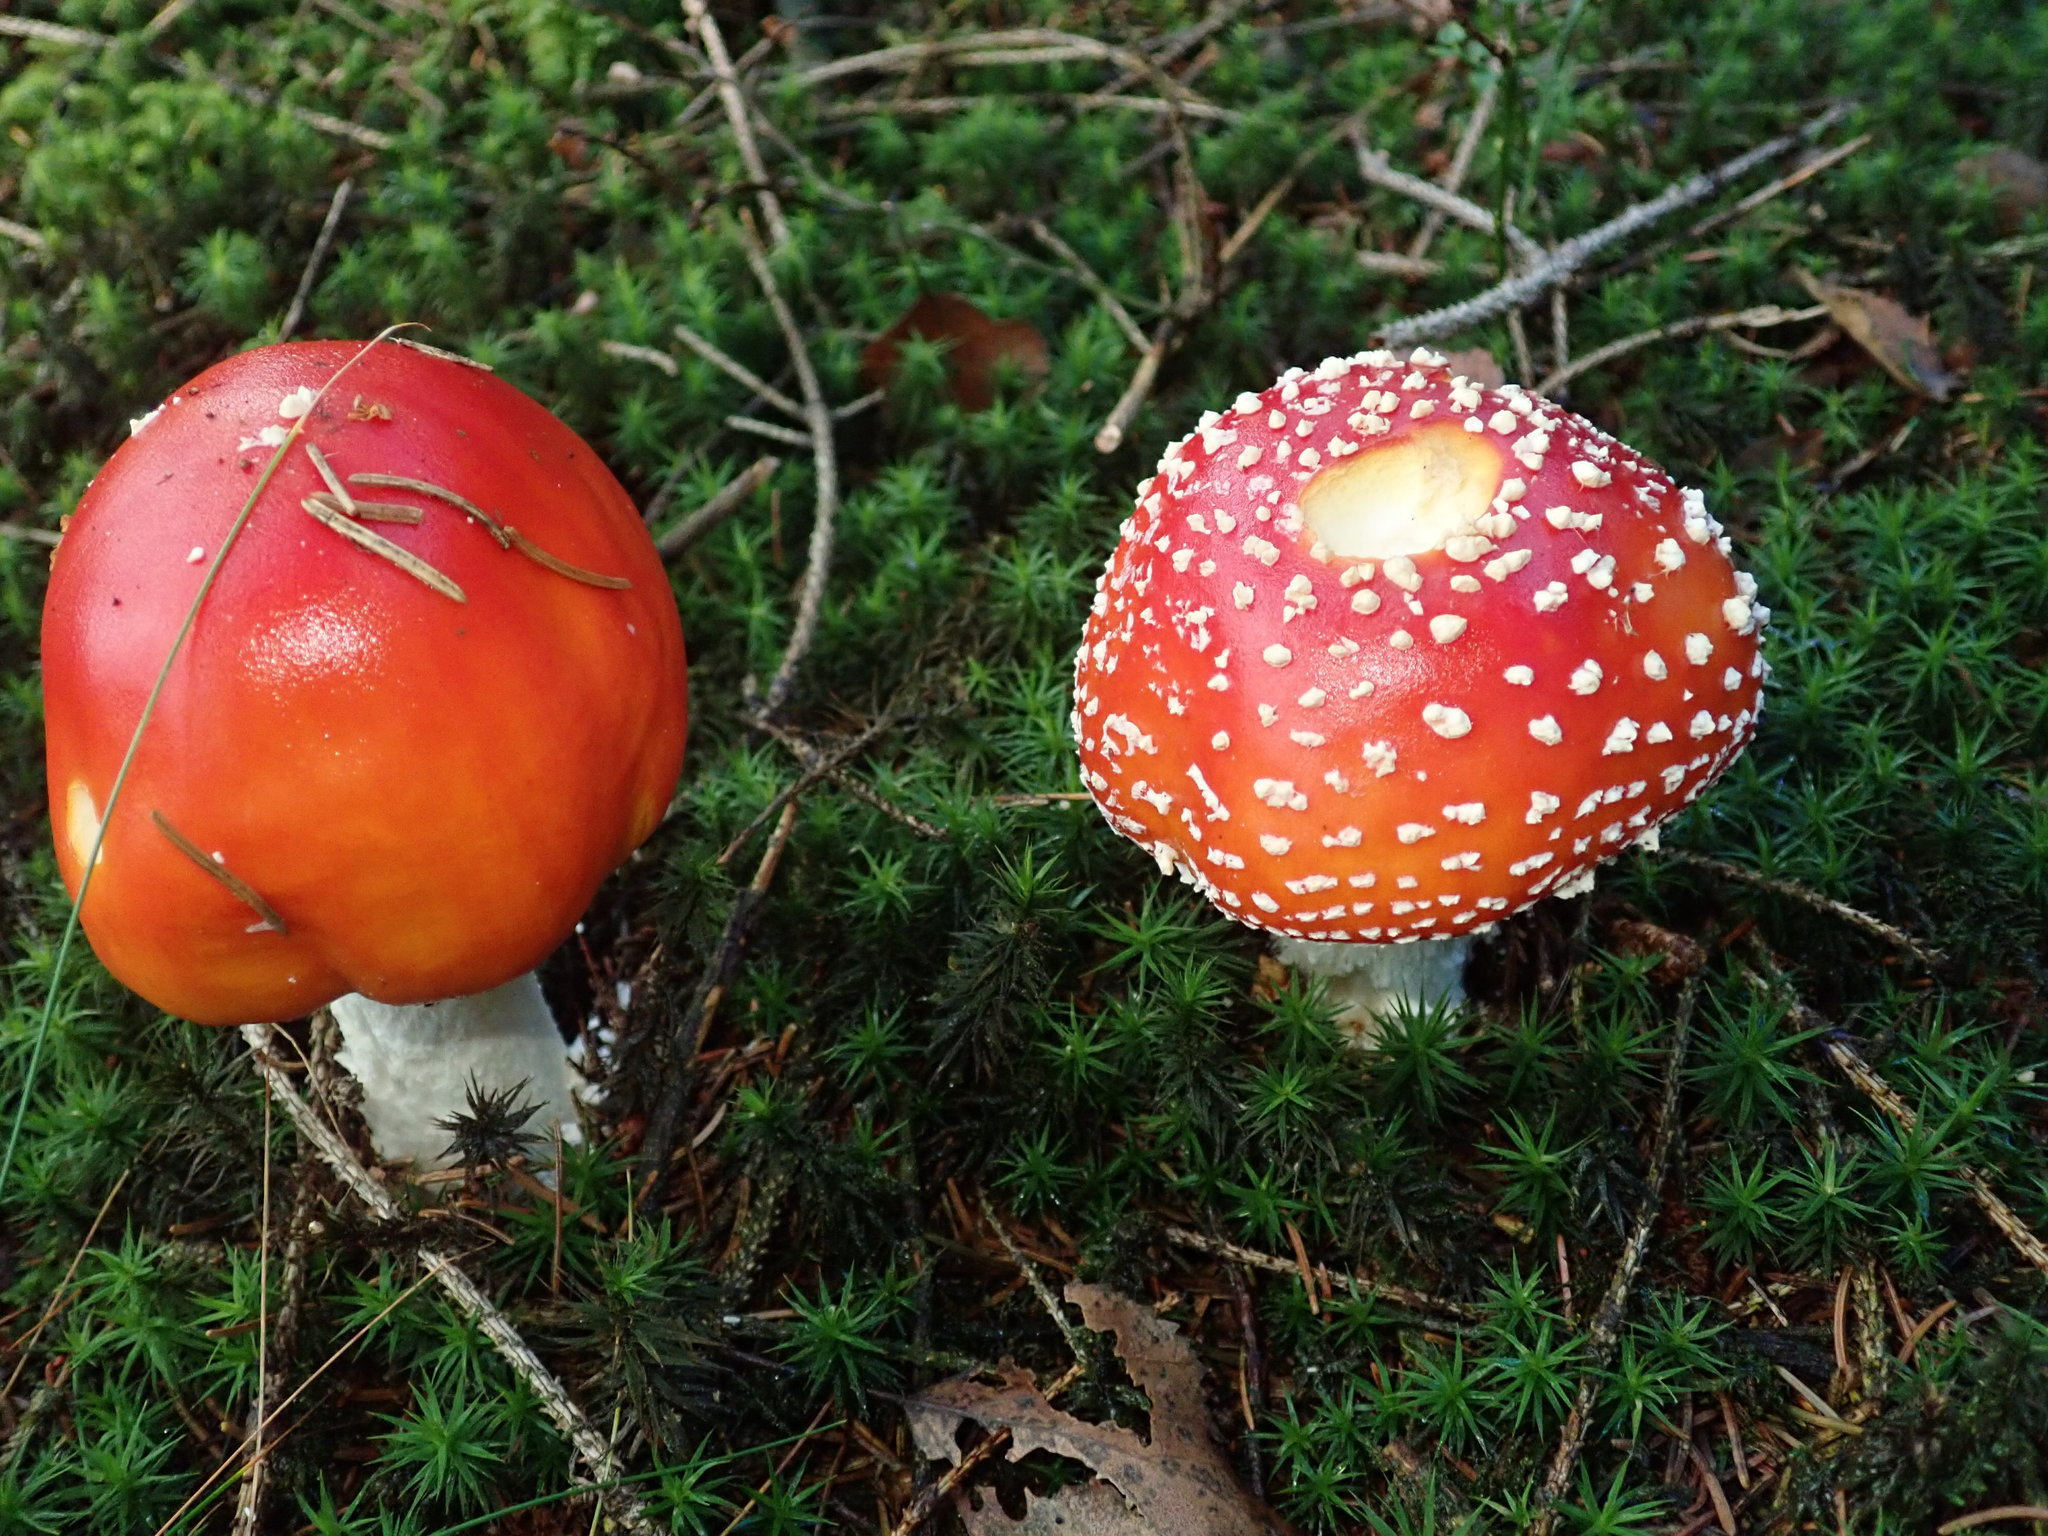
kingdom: Fungi
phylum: Basidiomycota
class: Agaricomycetes
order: Agaricales
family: Amanitaceae
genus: Amanita
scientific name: Amanita muscaria
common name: Fly agaric
